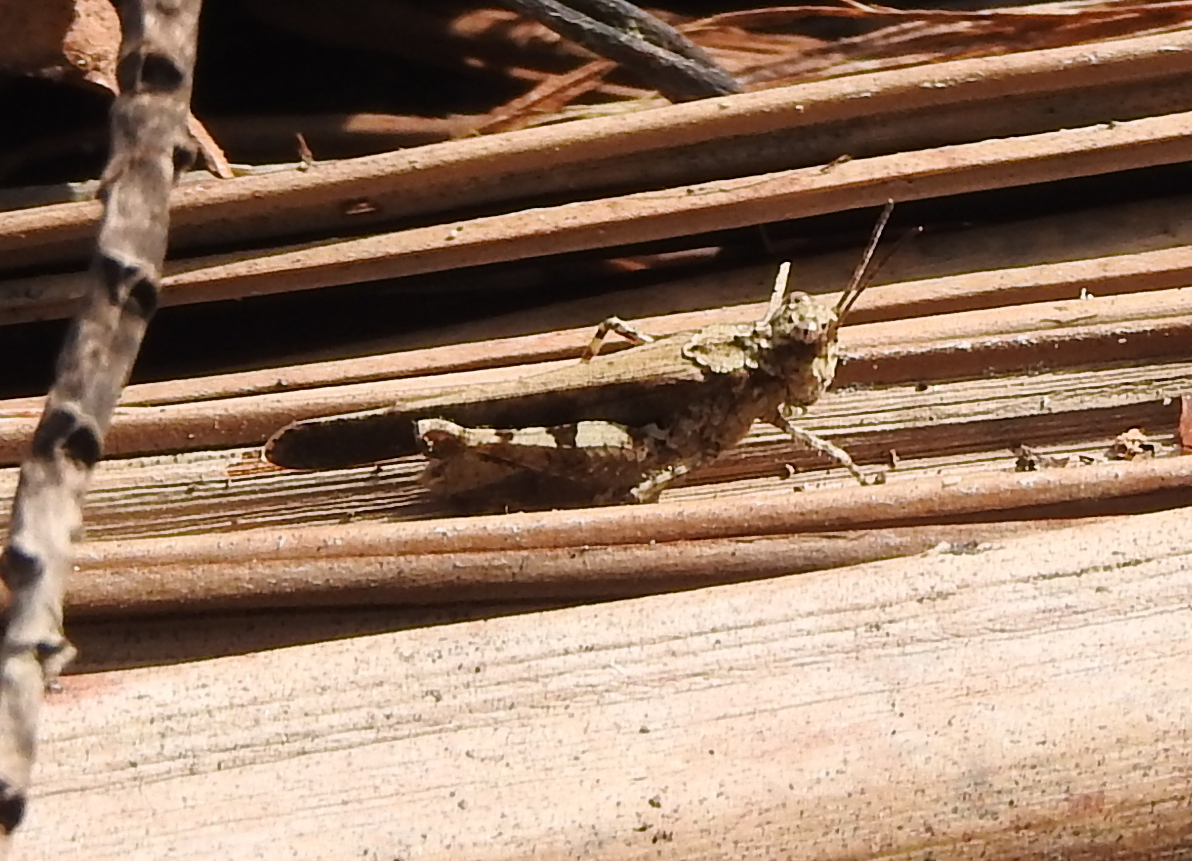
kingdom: Animalia
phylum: Arthropoda
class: Insecta
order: Orthoptera
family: Acrididae
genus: Trilophidia
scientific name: Trilophidia annulata
